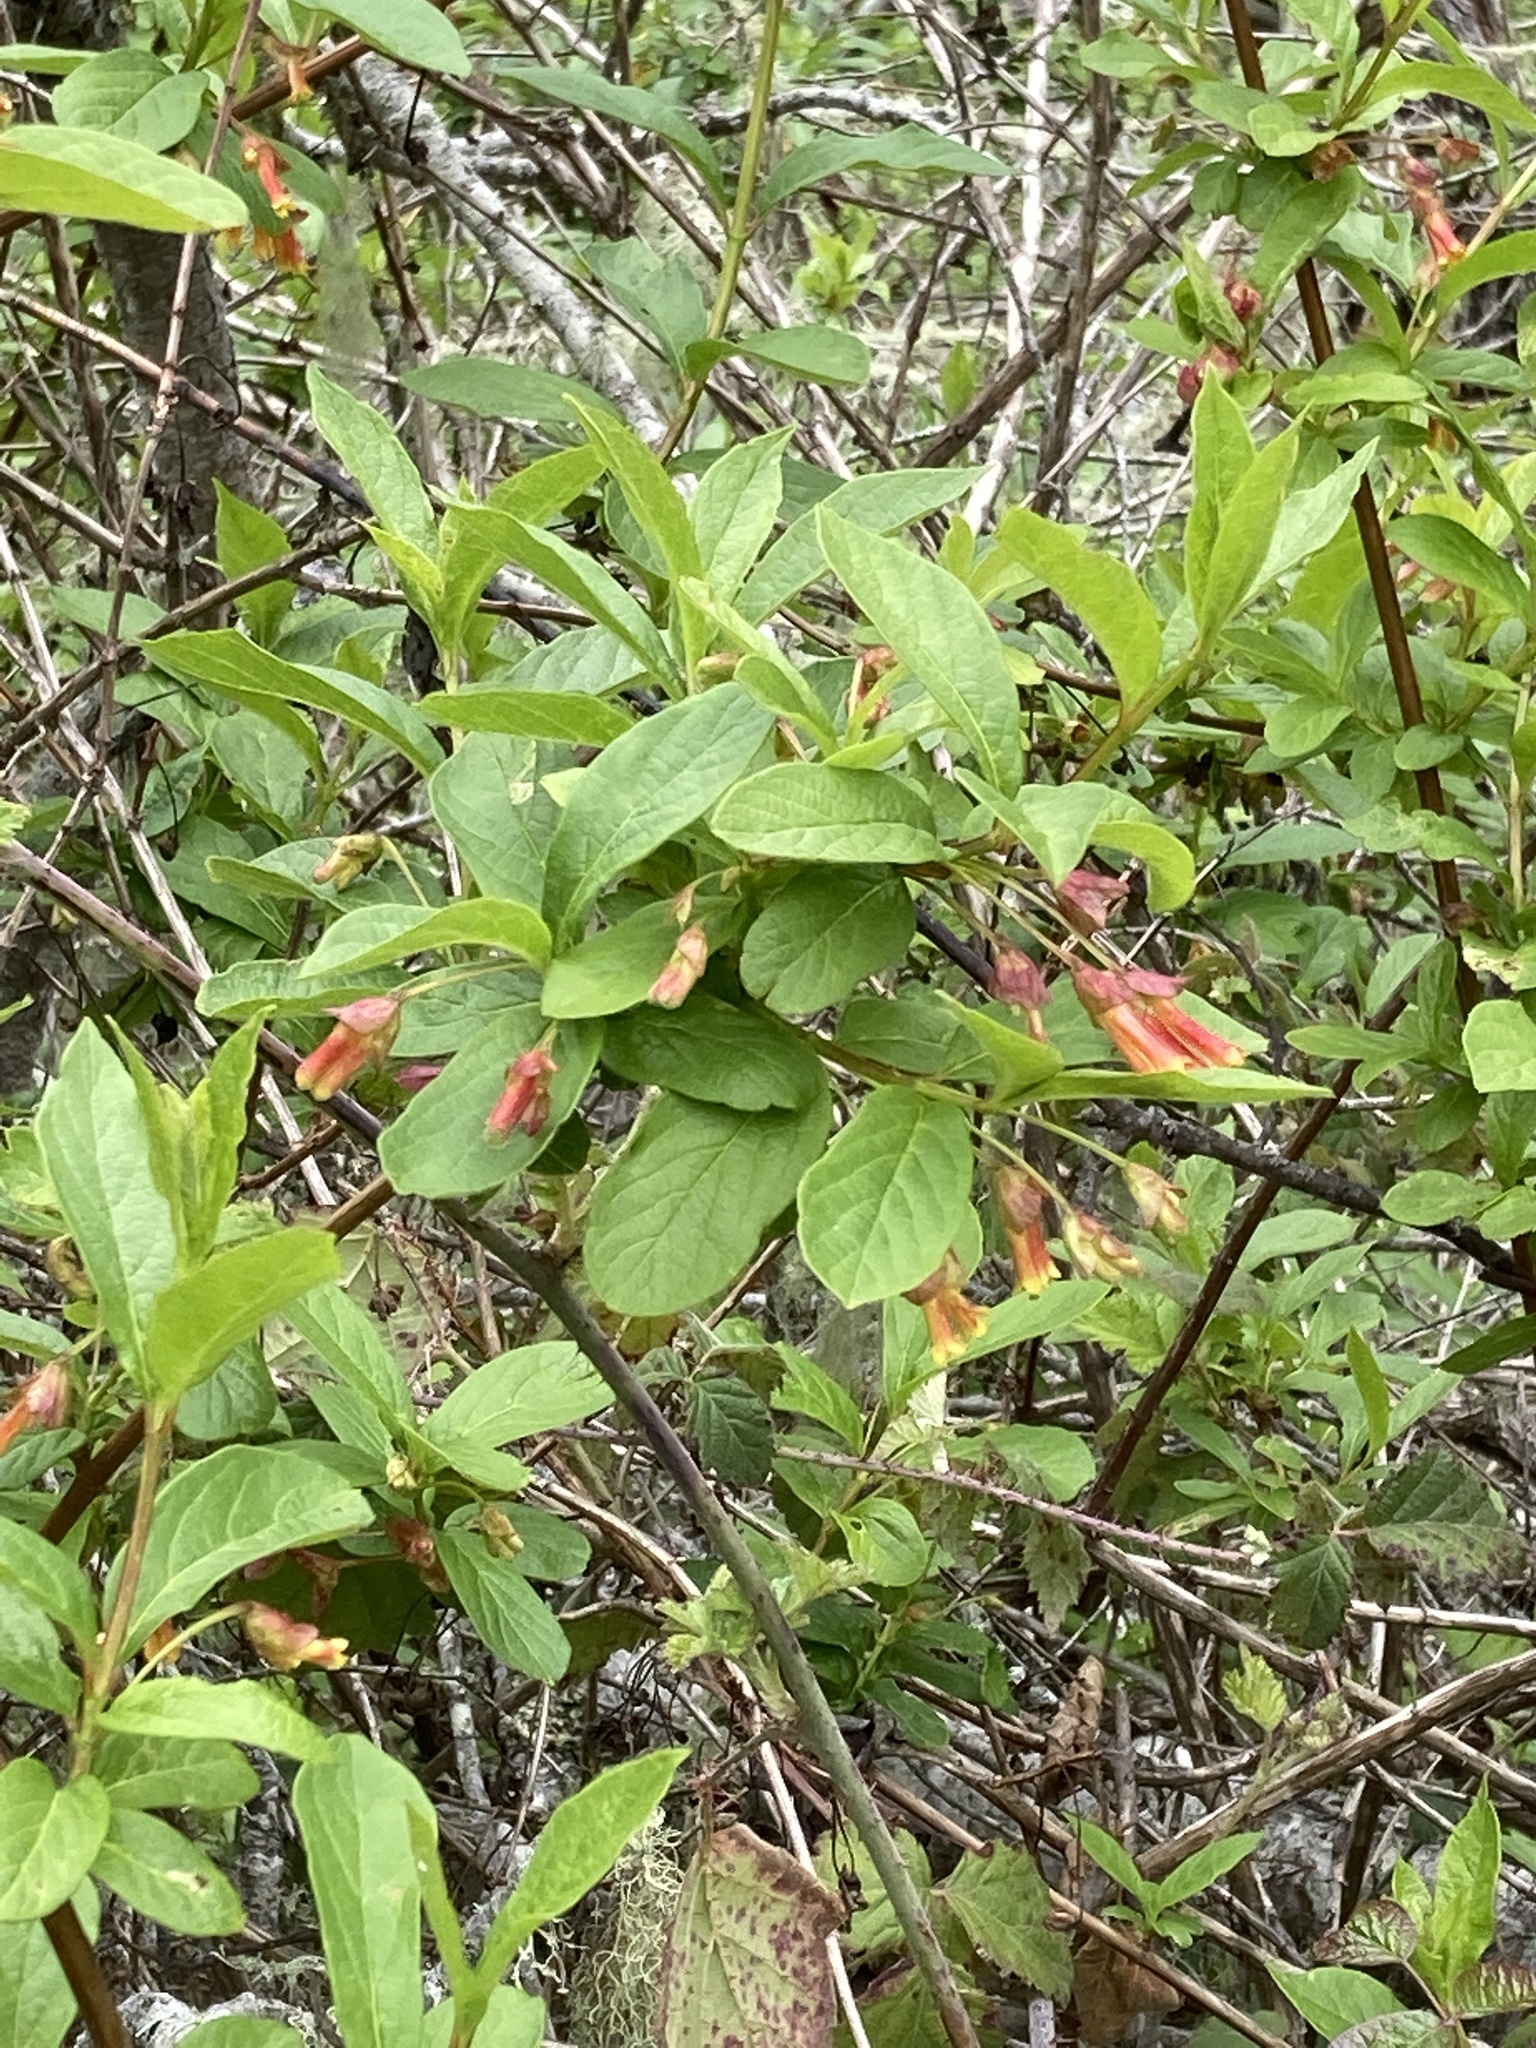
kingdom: Plantae
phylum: Tracheophyta
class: Magnoliopsida
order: Dipsacales
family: Caprifoliaceae
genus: Lonicera
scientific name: Lonicera involucrata
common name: Californian honeysuckle
